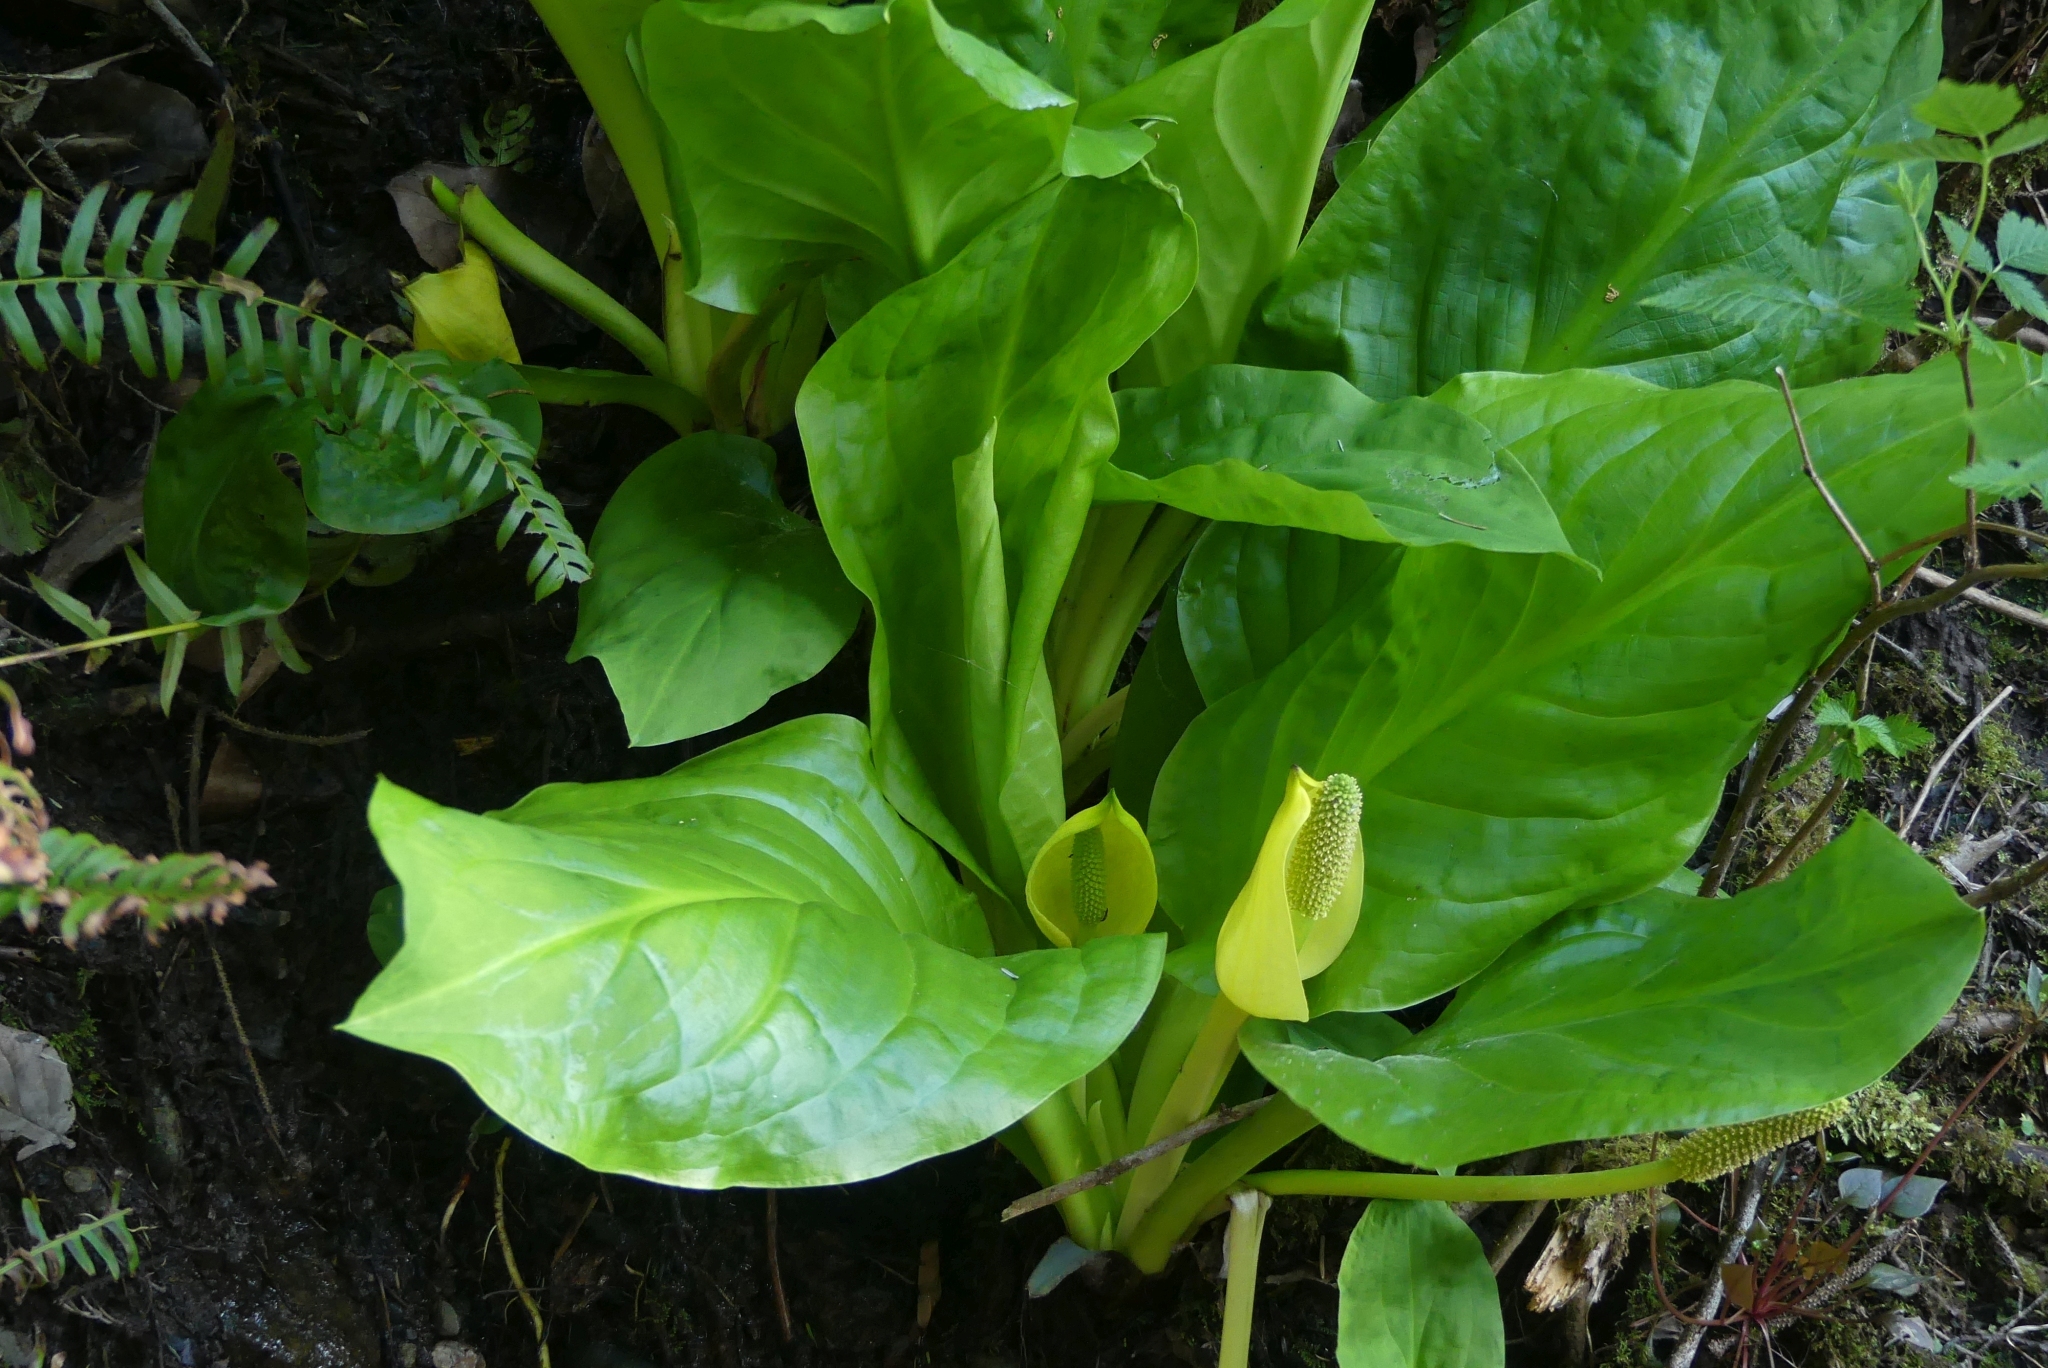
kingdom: Plantae
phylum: Tracheophyta
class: Liliopsida
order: Alismatales
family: Araceae
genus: Lysichiton
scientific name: Lysichiton americanus
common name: American skunk cabbage
